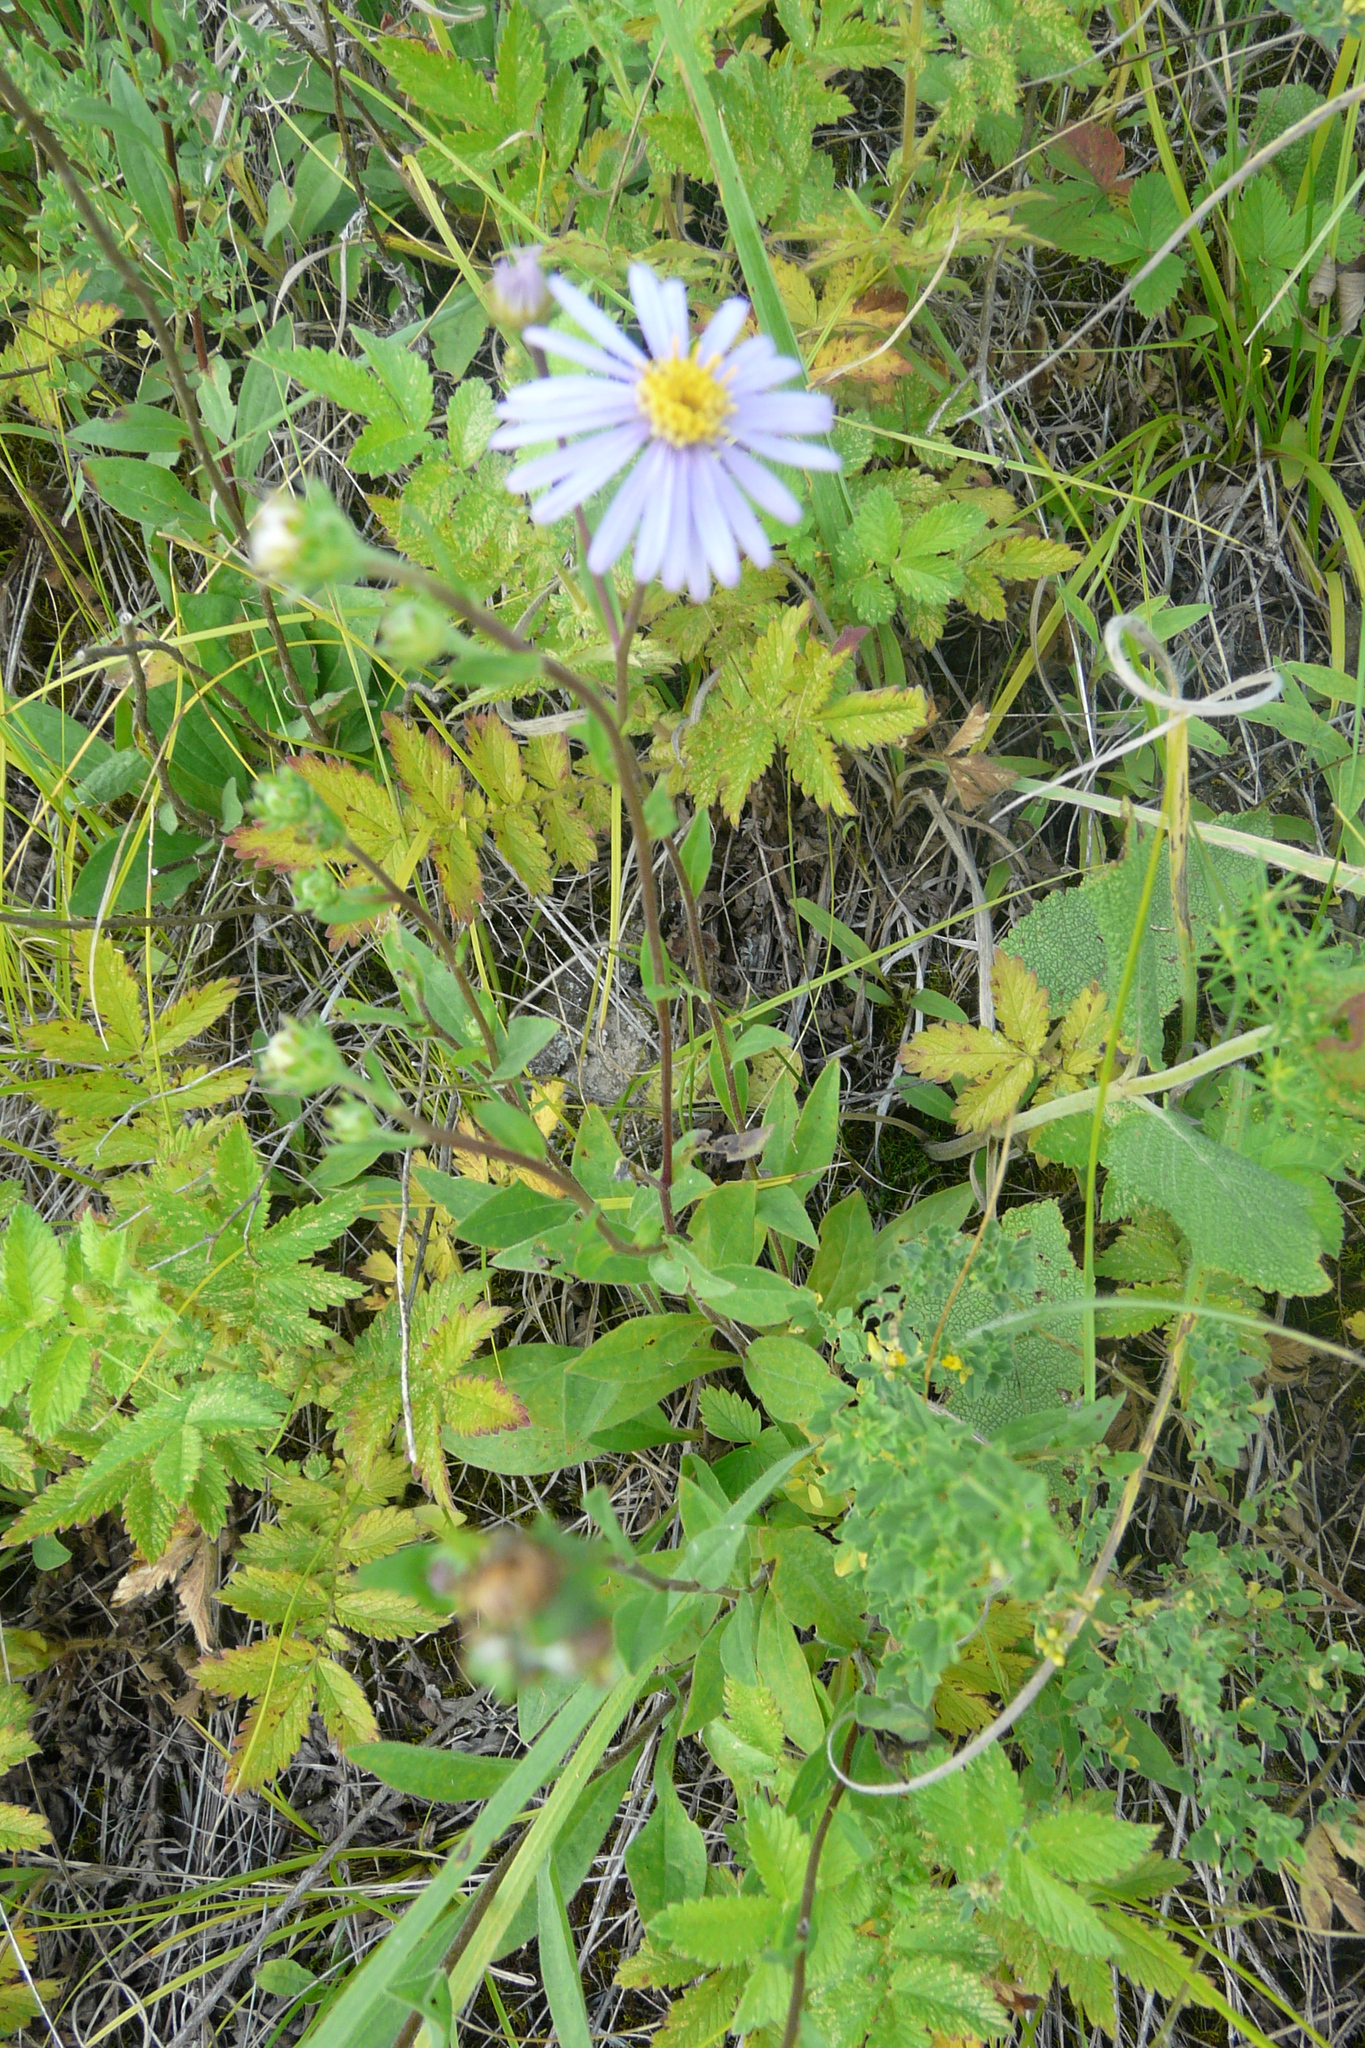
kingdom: Plantae
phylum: Tracheophyta
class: Magnoliopsida
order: Asterales
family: Asteraceae
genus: Aster
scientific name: Aster amellus
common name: European michaelmas daisy
